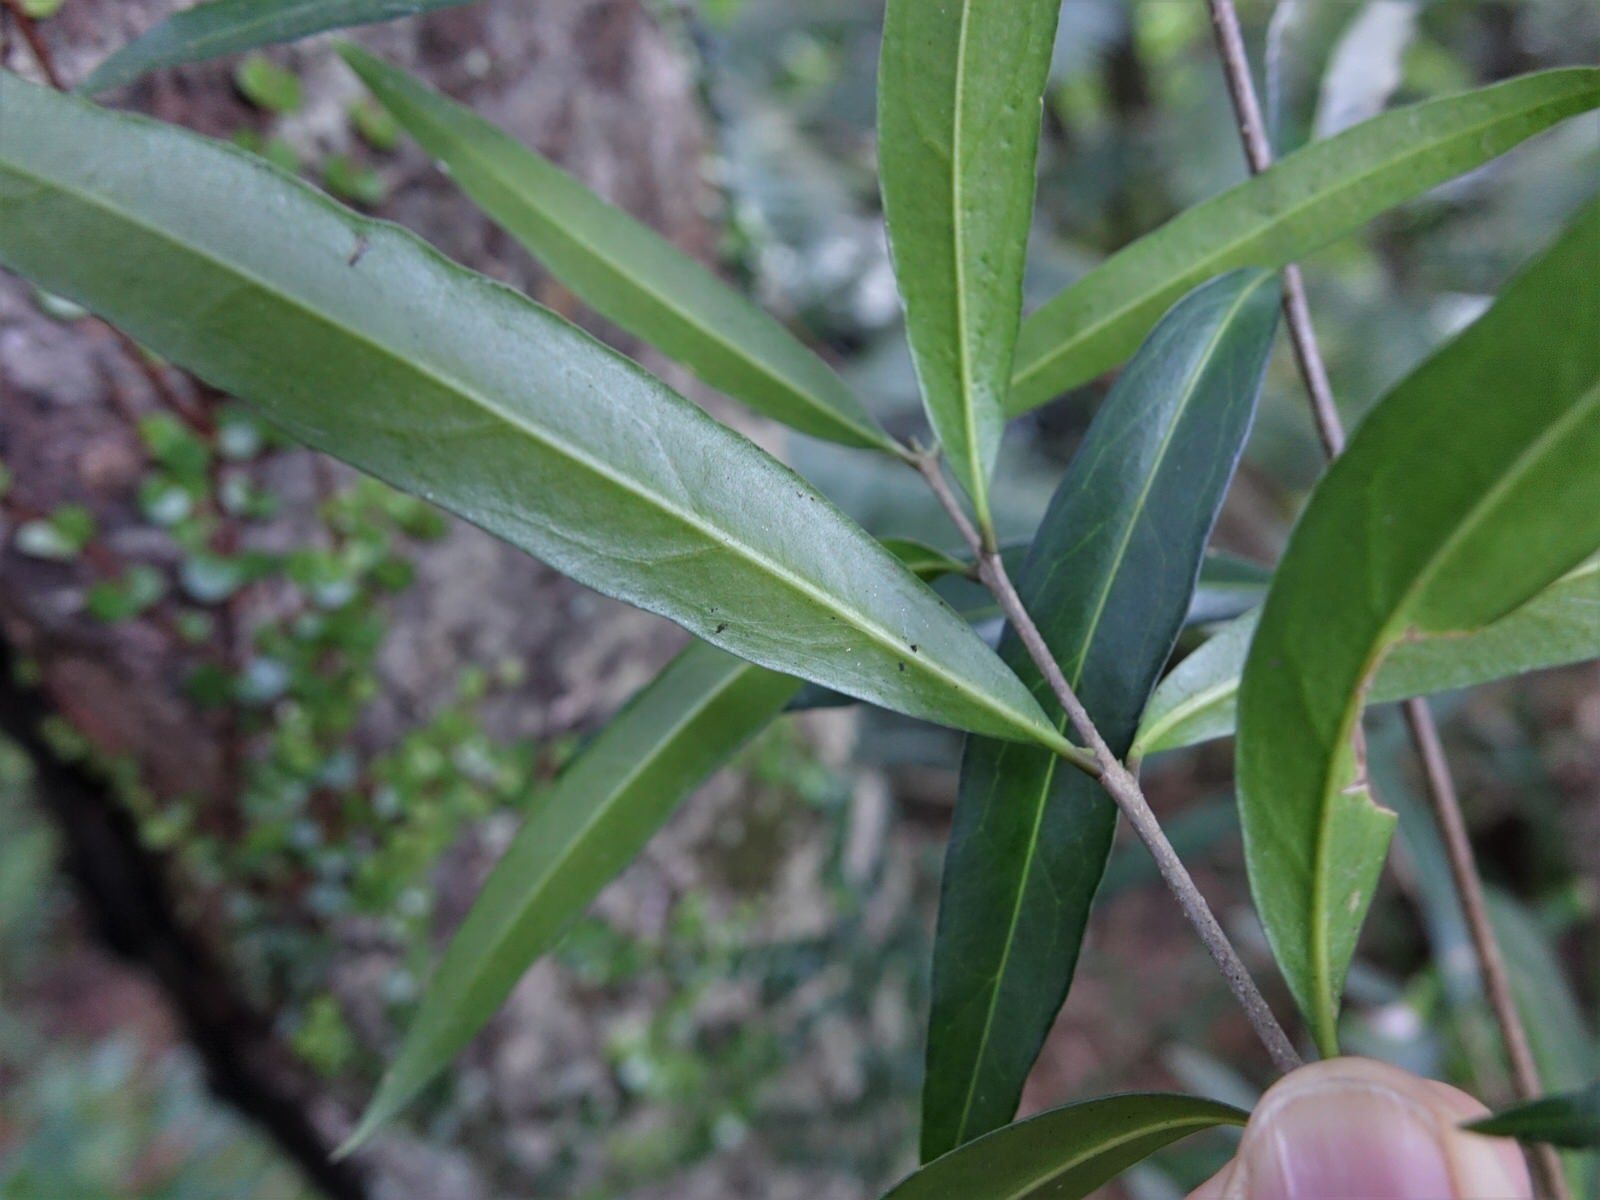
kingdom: Plantae
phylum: Tracheophyta
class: Magnoliopsida
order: Lamiales
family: Oleaceae
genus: Nestegis
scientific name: Nestegis lanceolata
